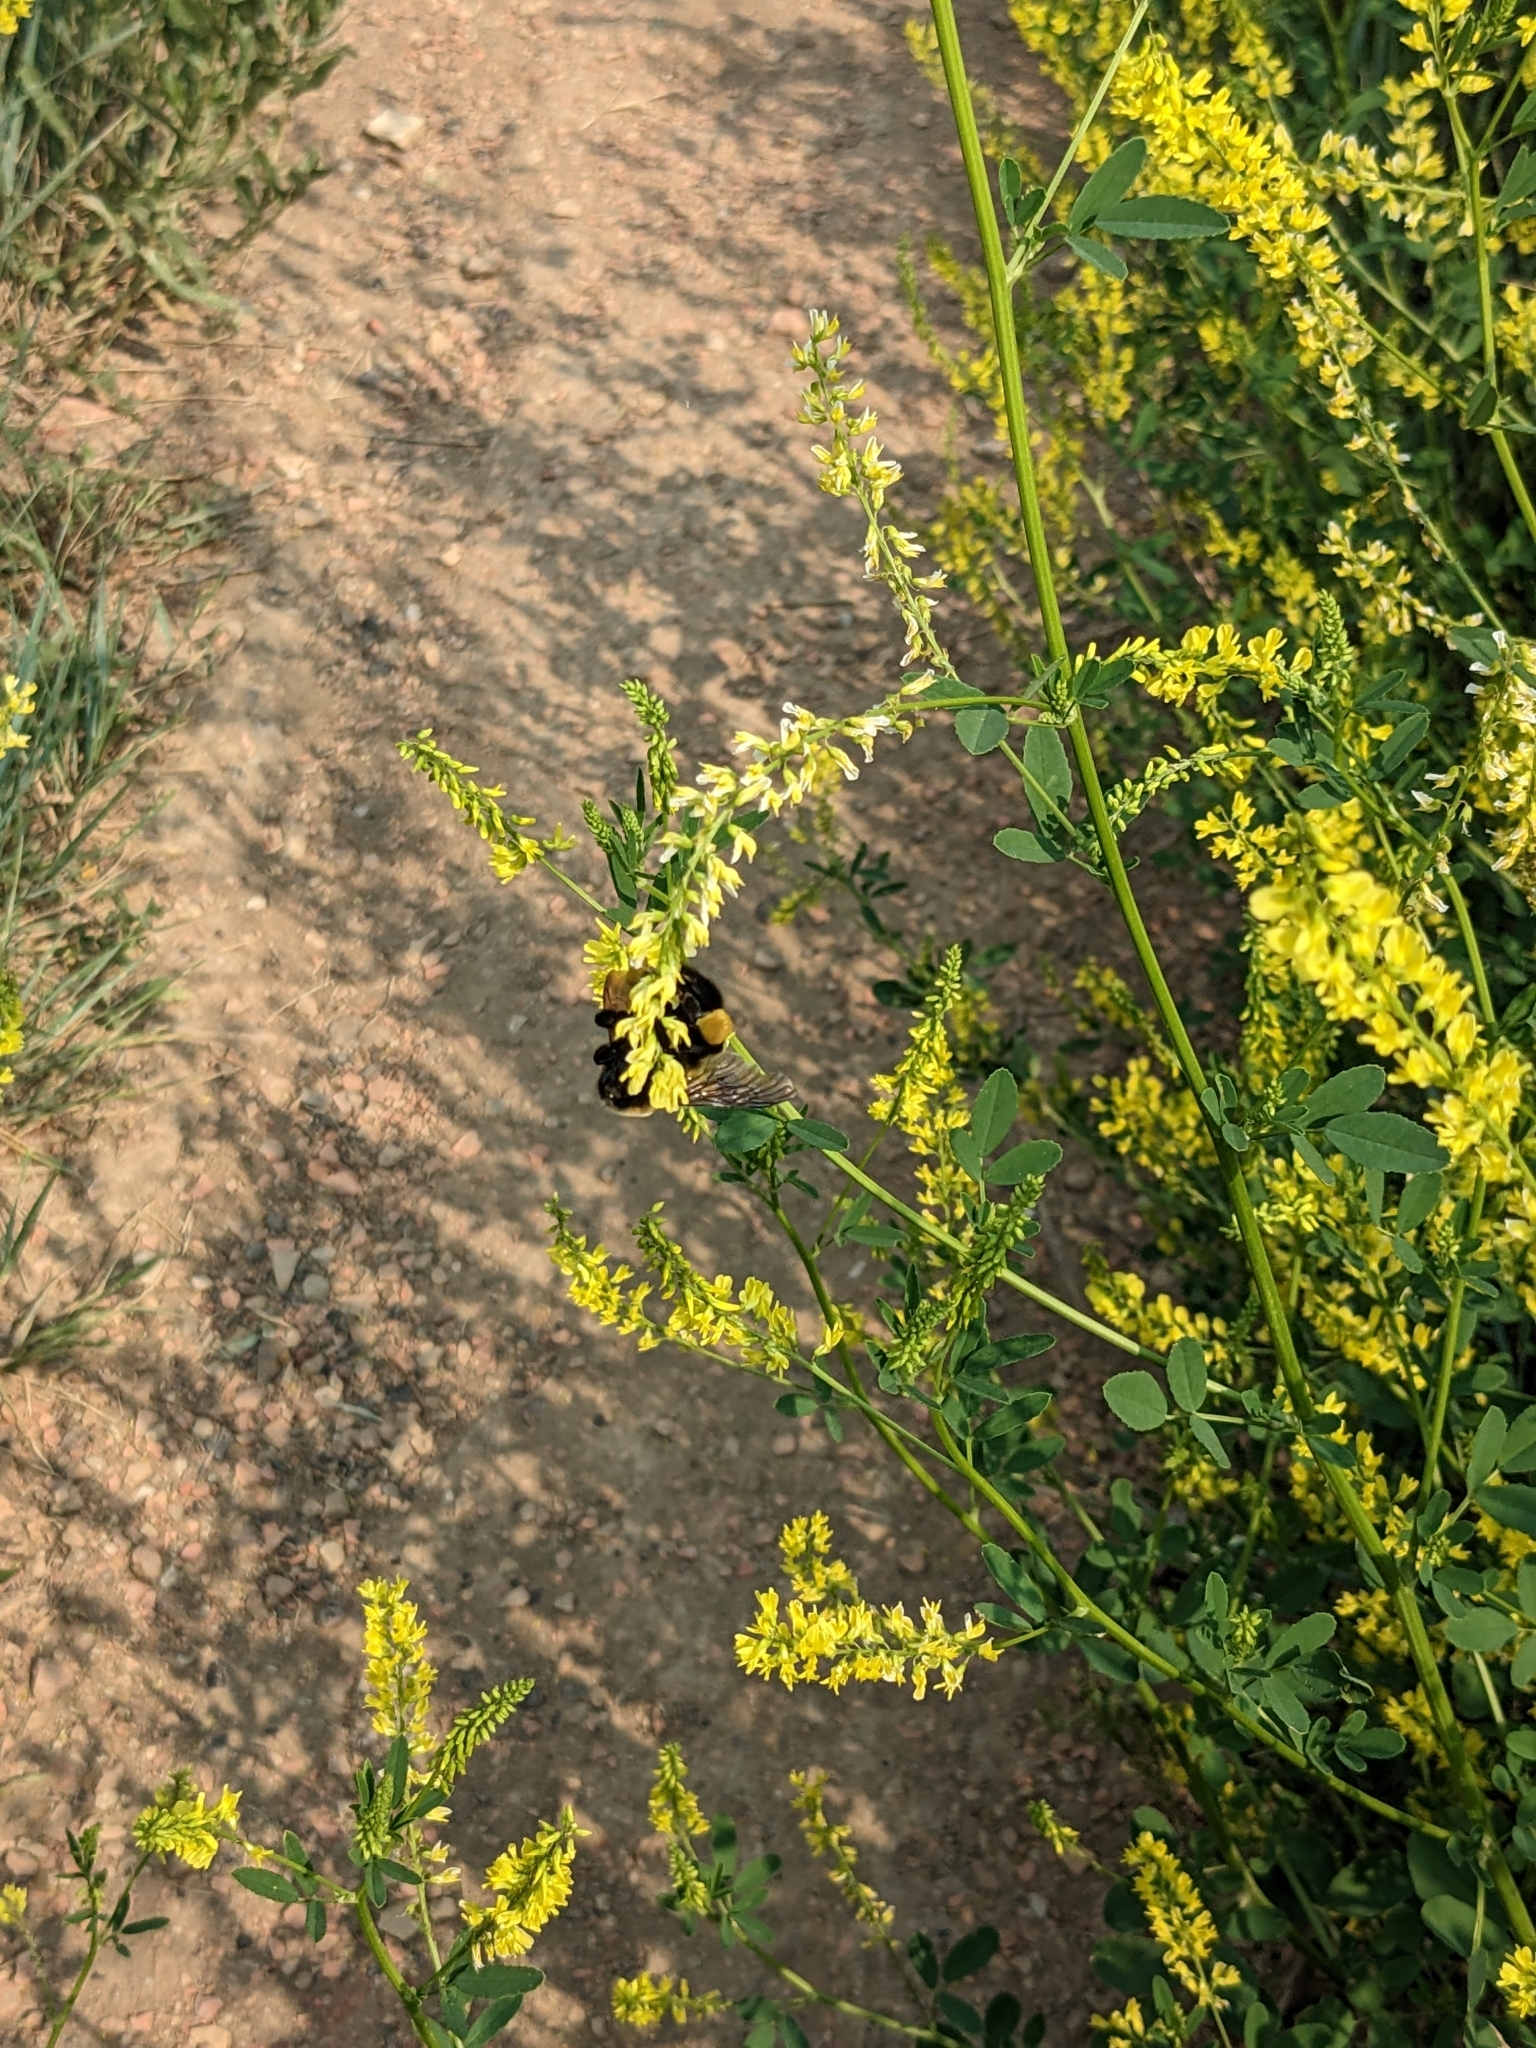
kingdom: Animalia
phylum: Arthropoda
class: Insecta
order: Hymenoptera
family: Apidae
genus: Bombus
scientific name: Bombus nevadensis
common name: Nevada bumble bee
